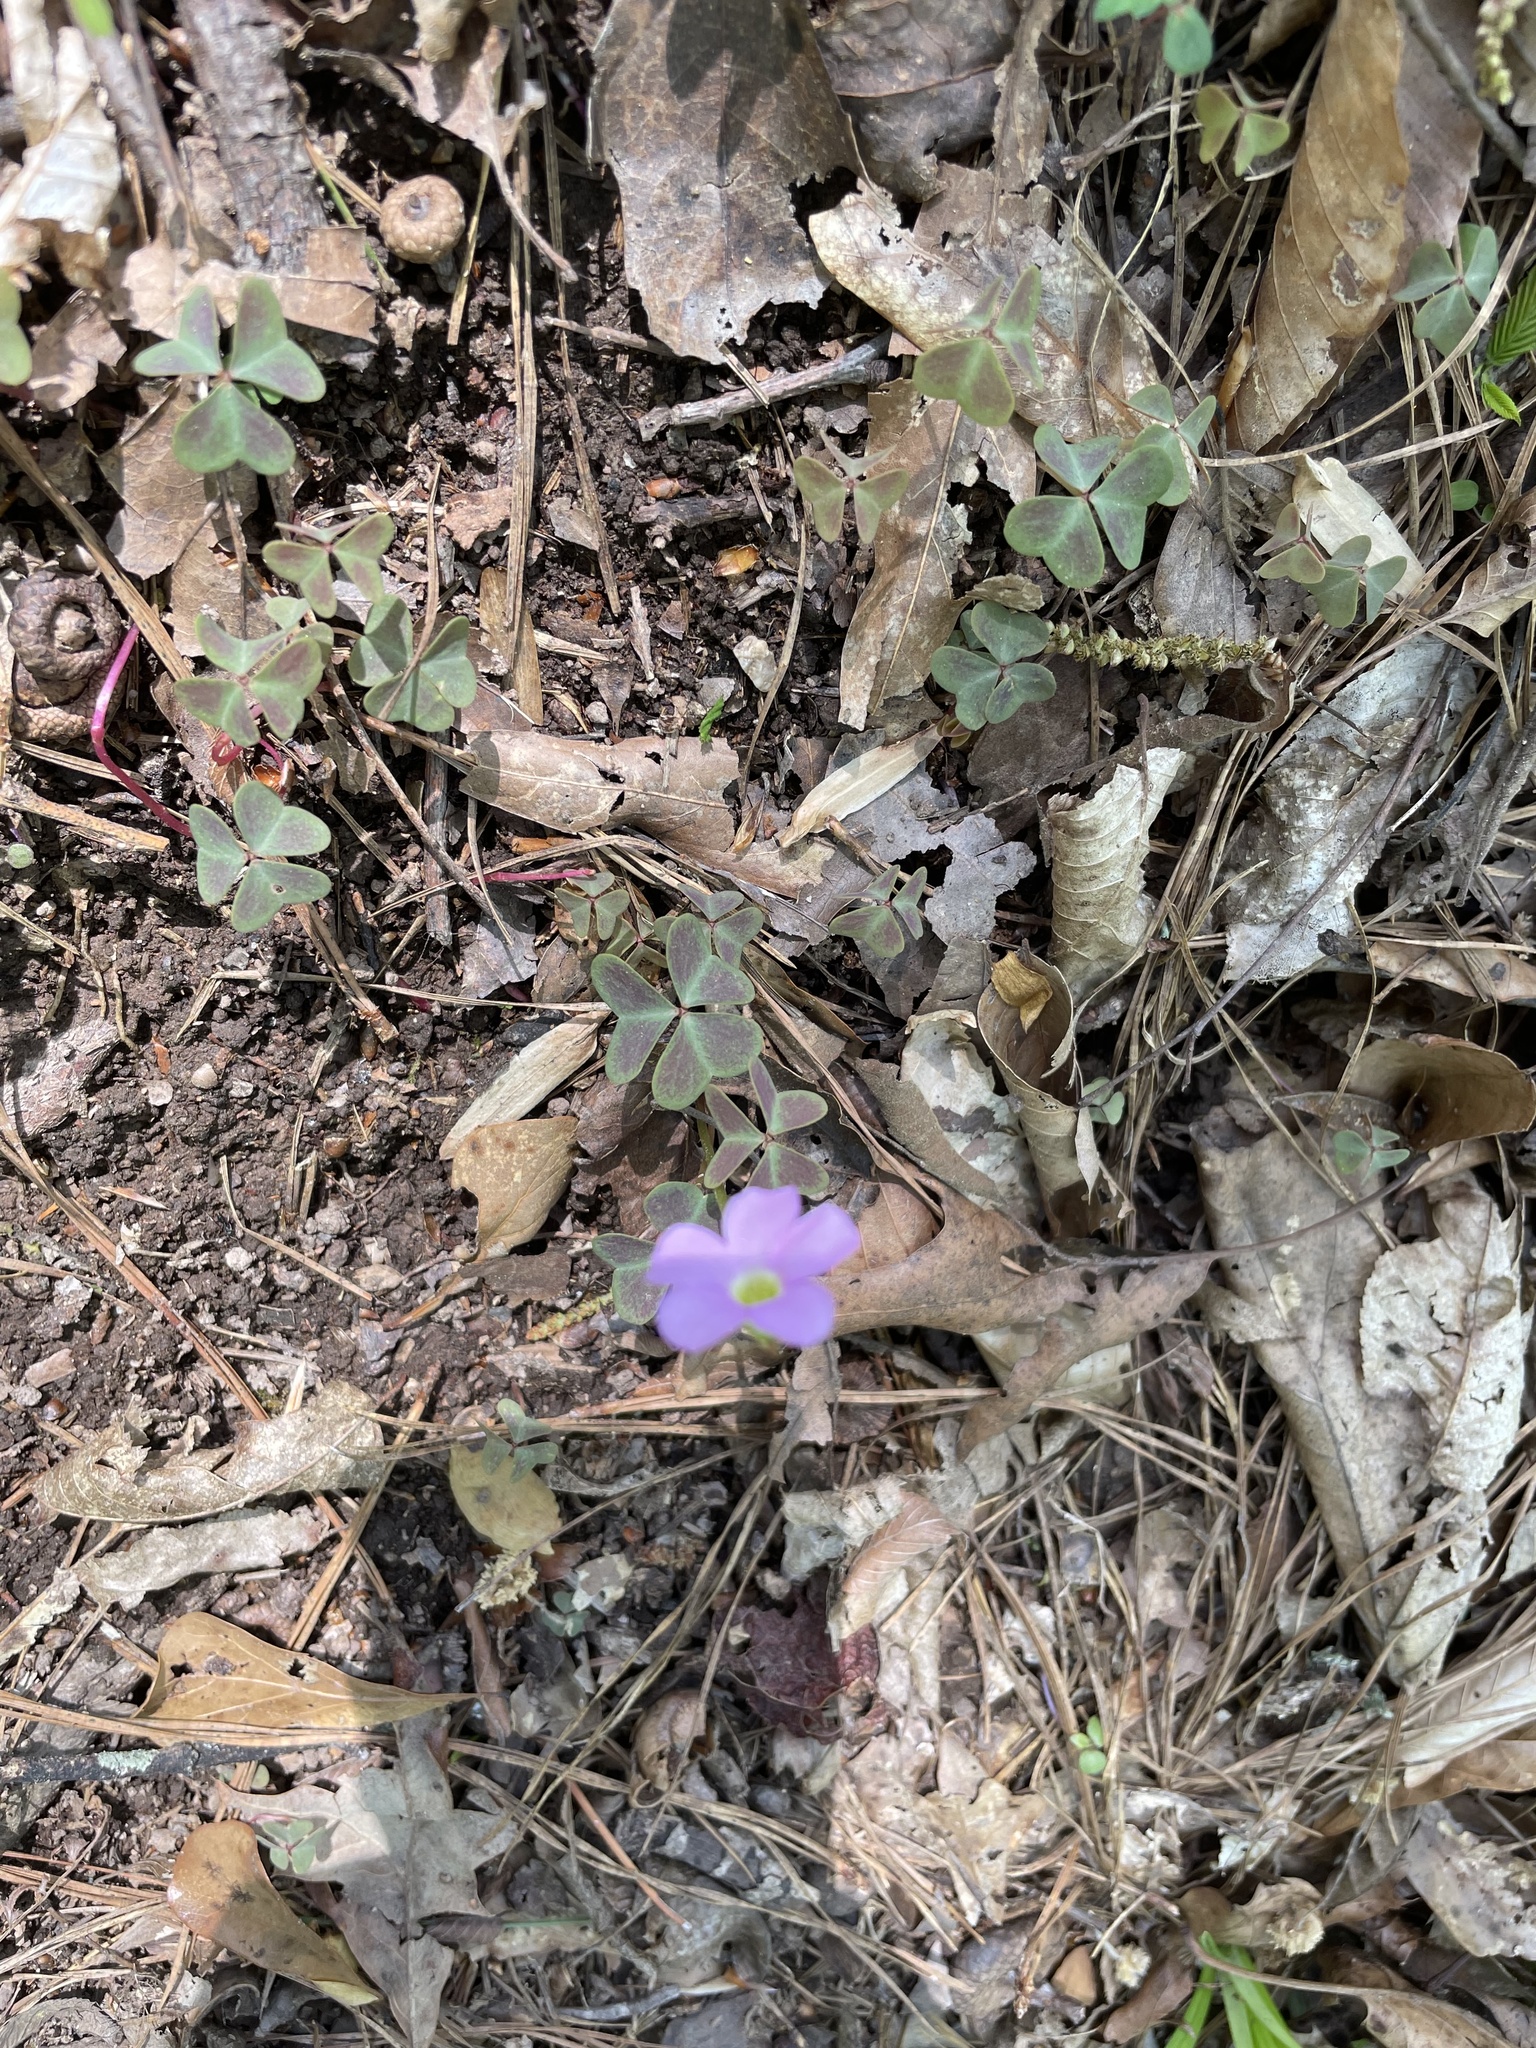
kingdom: Plantae
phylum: Tracheophyta
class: Magnoliopsida
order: Oxalidales
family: Oxalidaceae
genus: Oxalis
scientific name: Oxalis violacea
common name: Violet wood-sorrel
